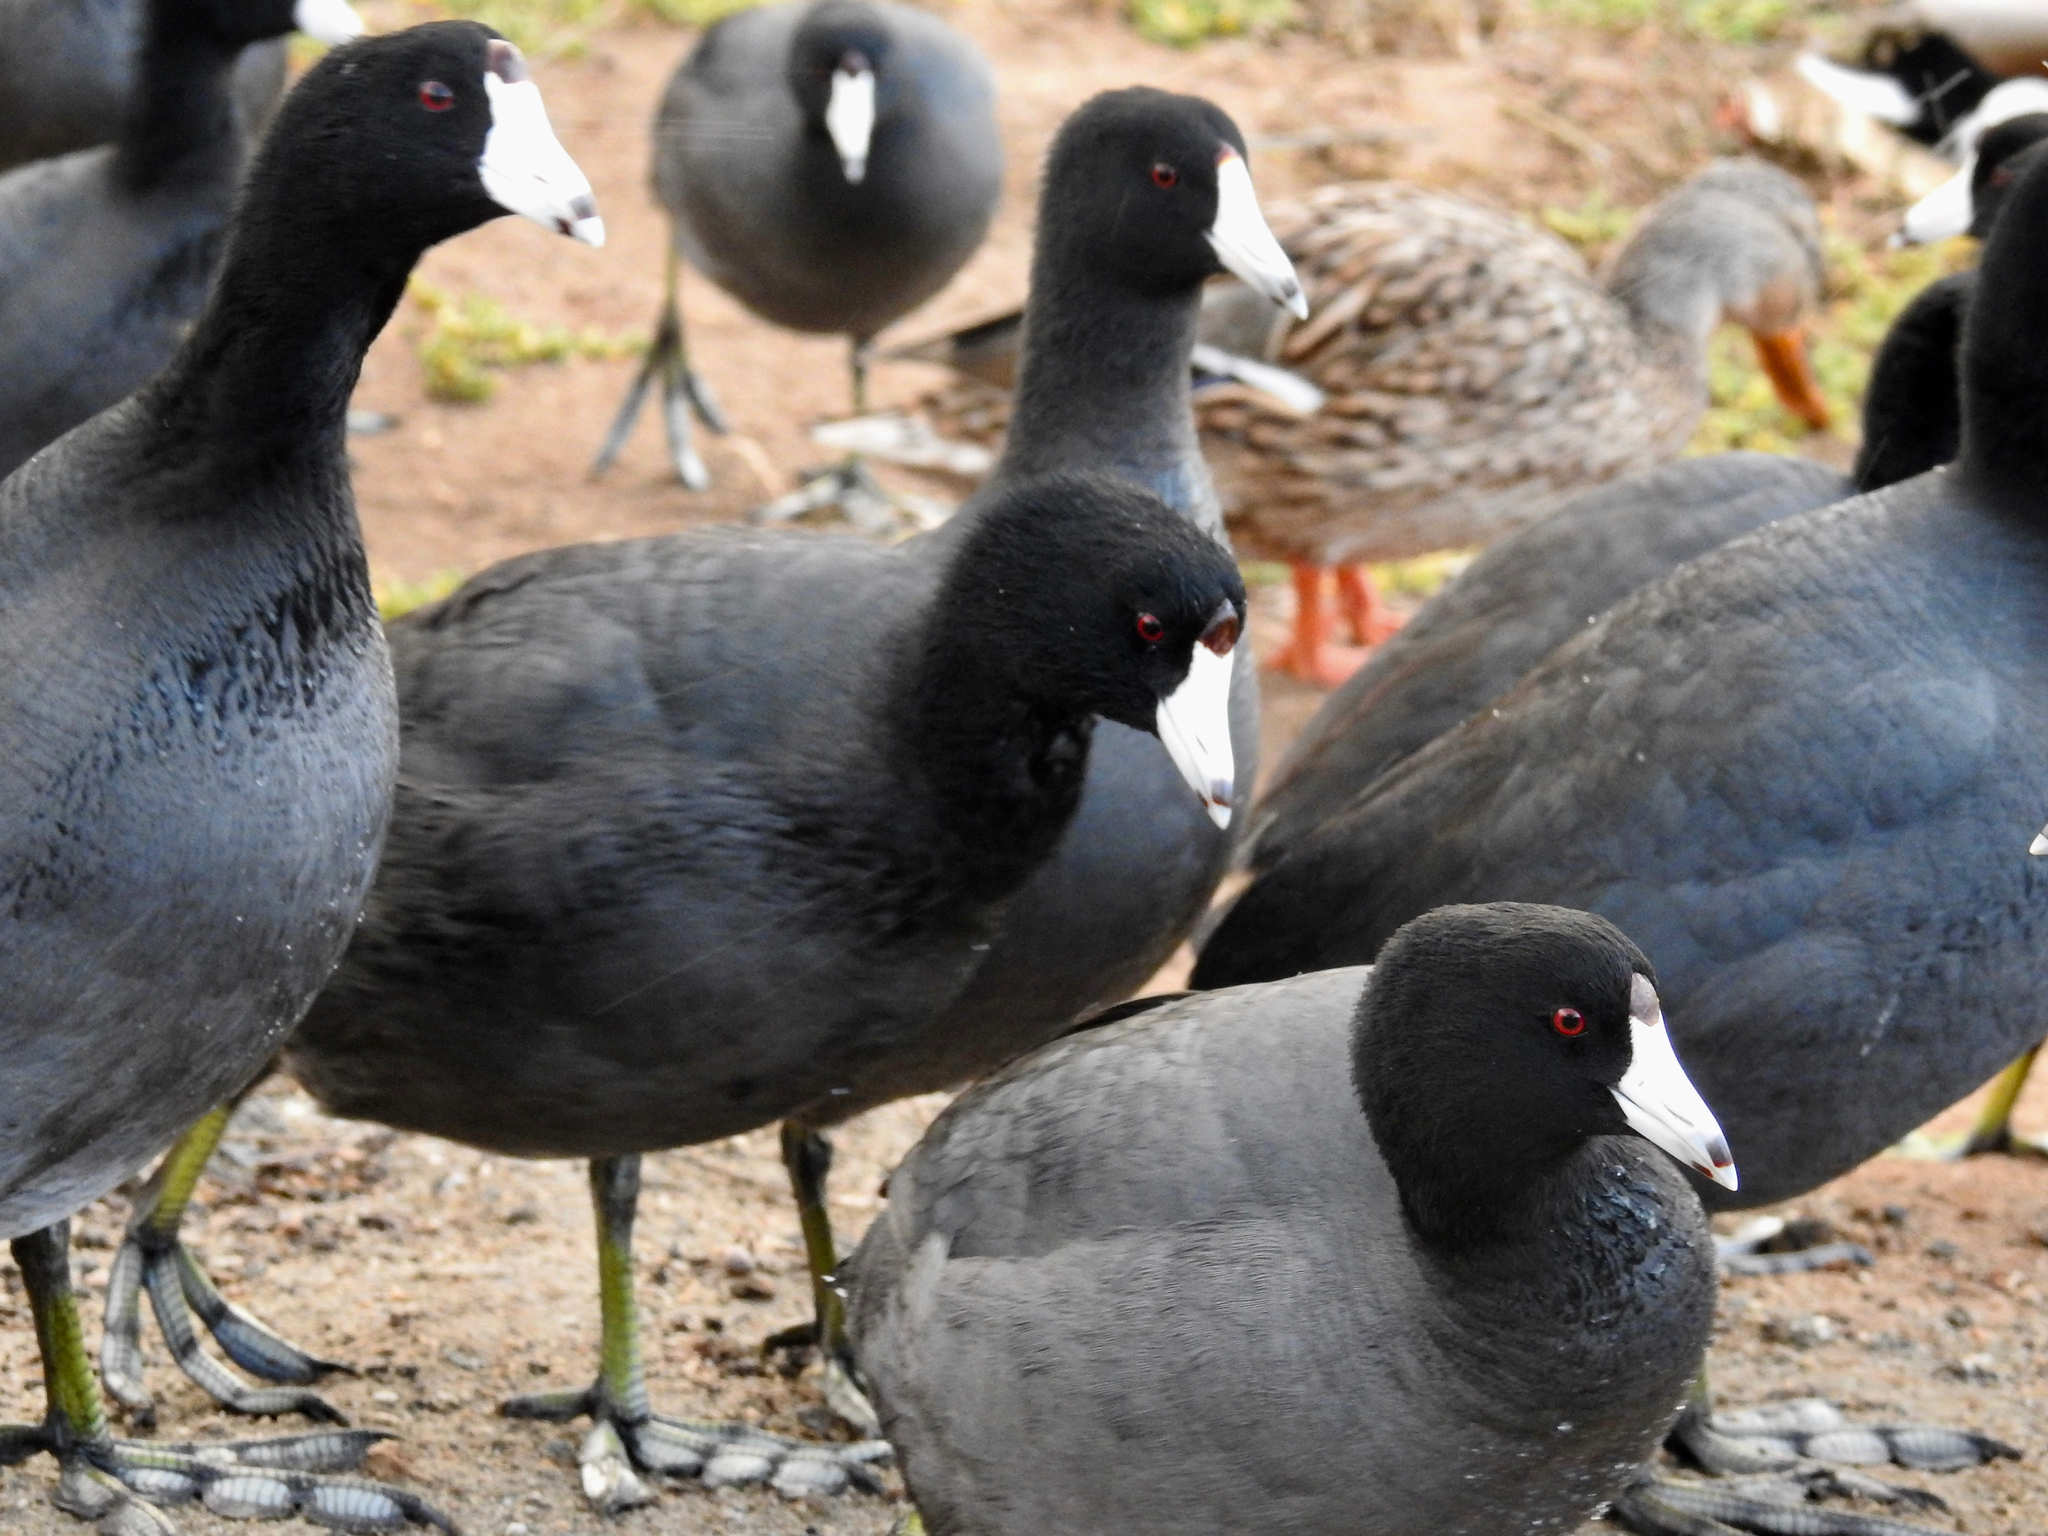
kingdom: Animalia
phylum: Chordata
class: Aves
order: Gruiformes
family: Rallidae
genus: Fulica
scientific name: Fulica americana
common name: American coot
